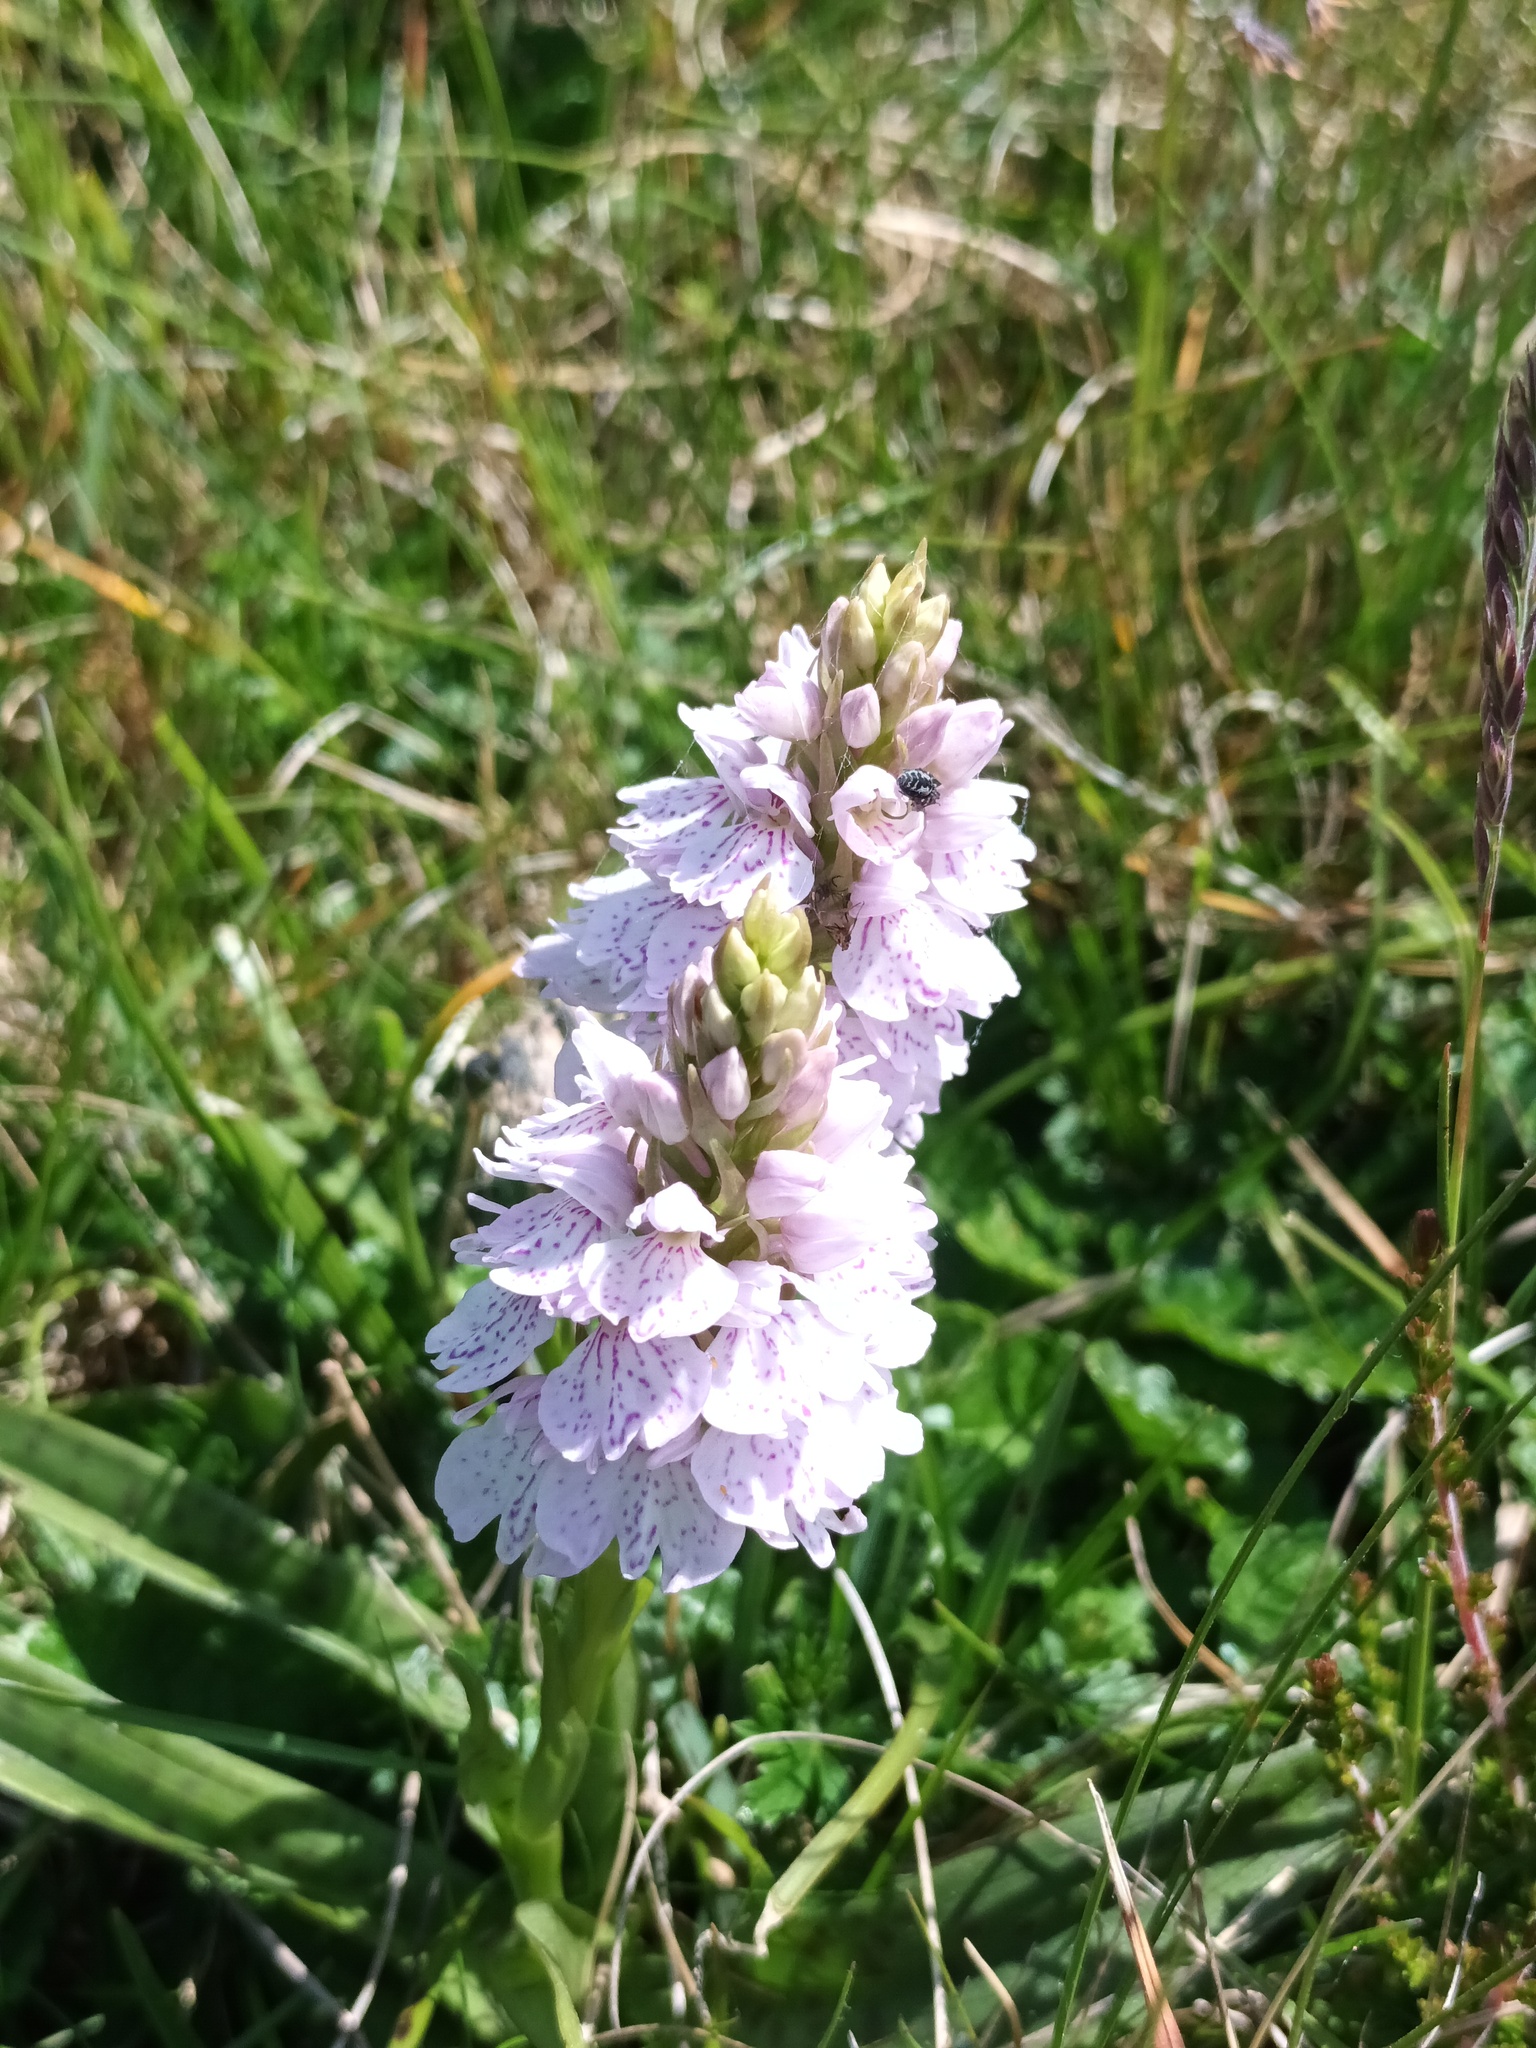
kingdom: Plantae
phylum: Tracheophyta
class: Liliopsida
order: Asparagales
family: Orchidaceae
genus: Dactylorhiza
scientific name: Dactylorhiza maculata
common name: Heath spotted-orchid
